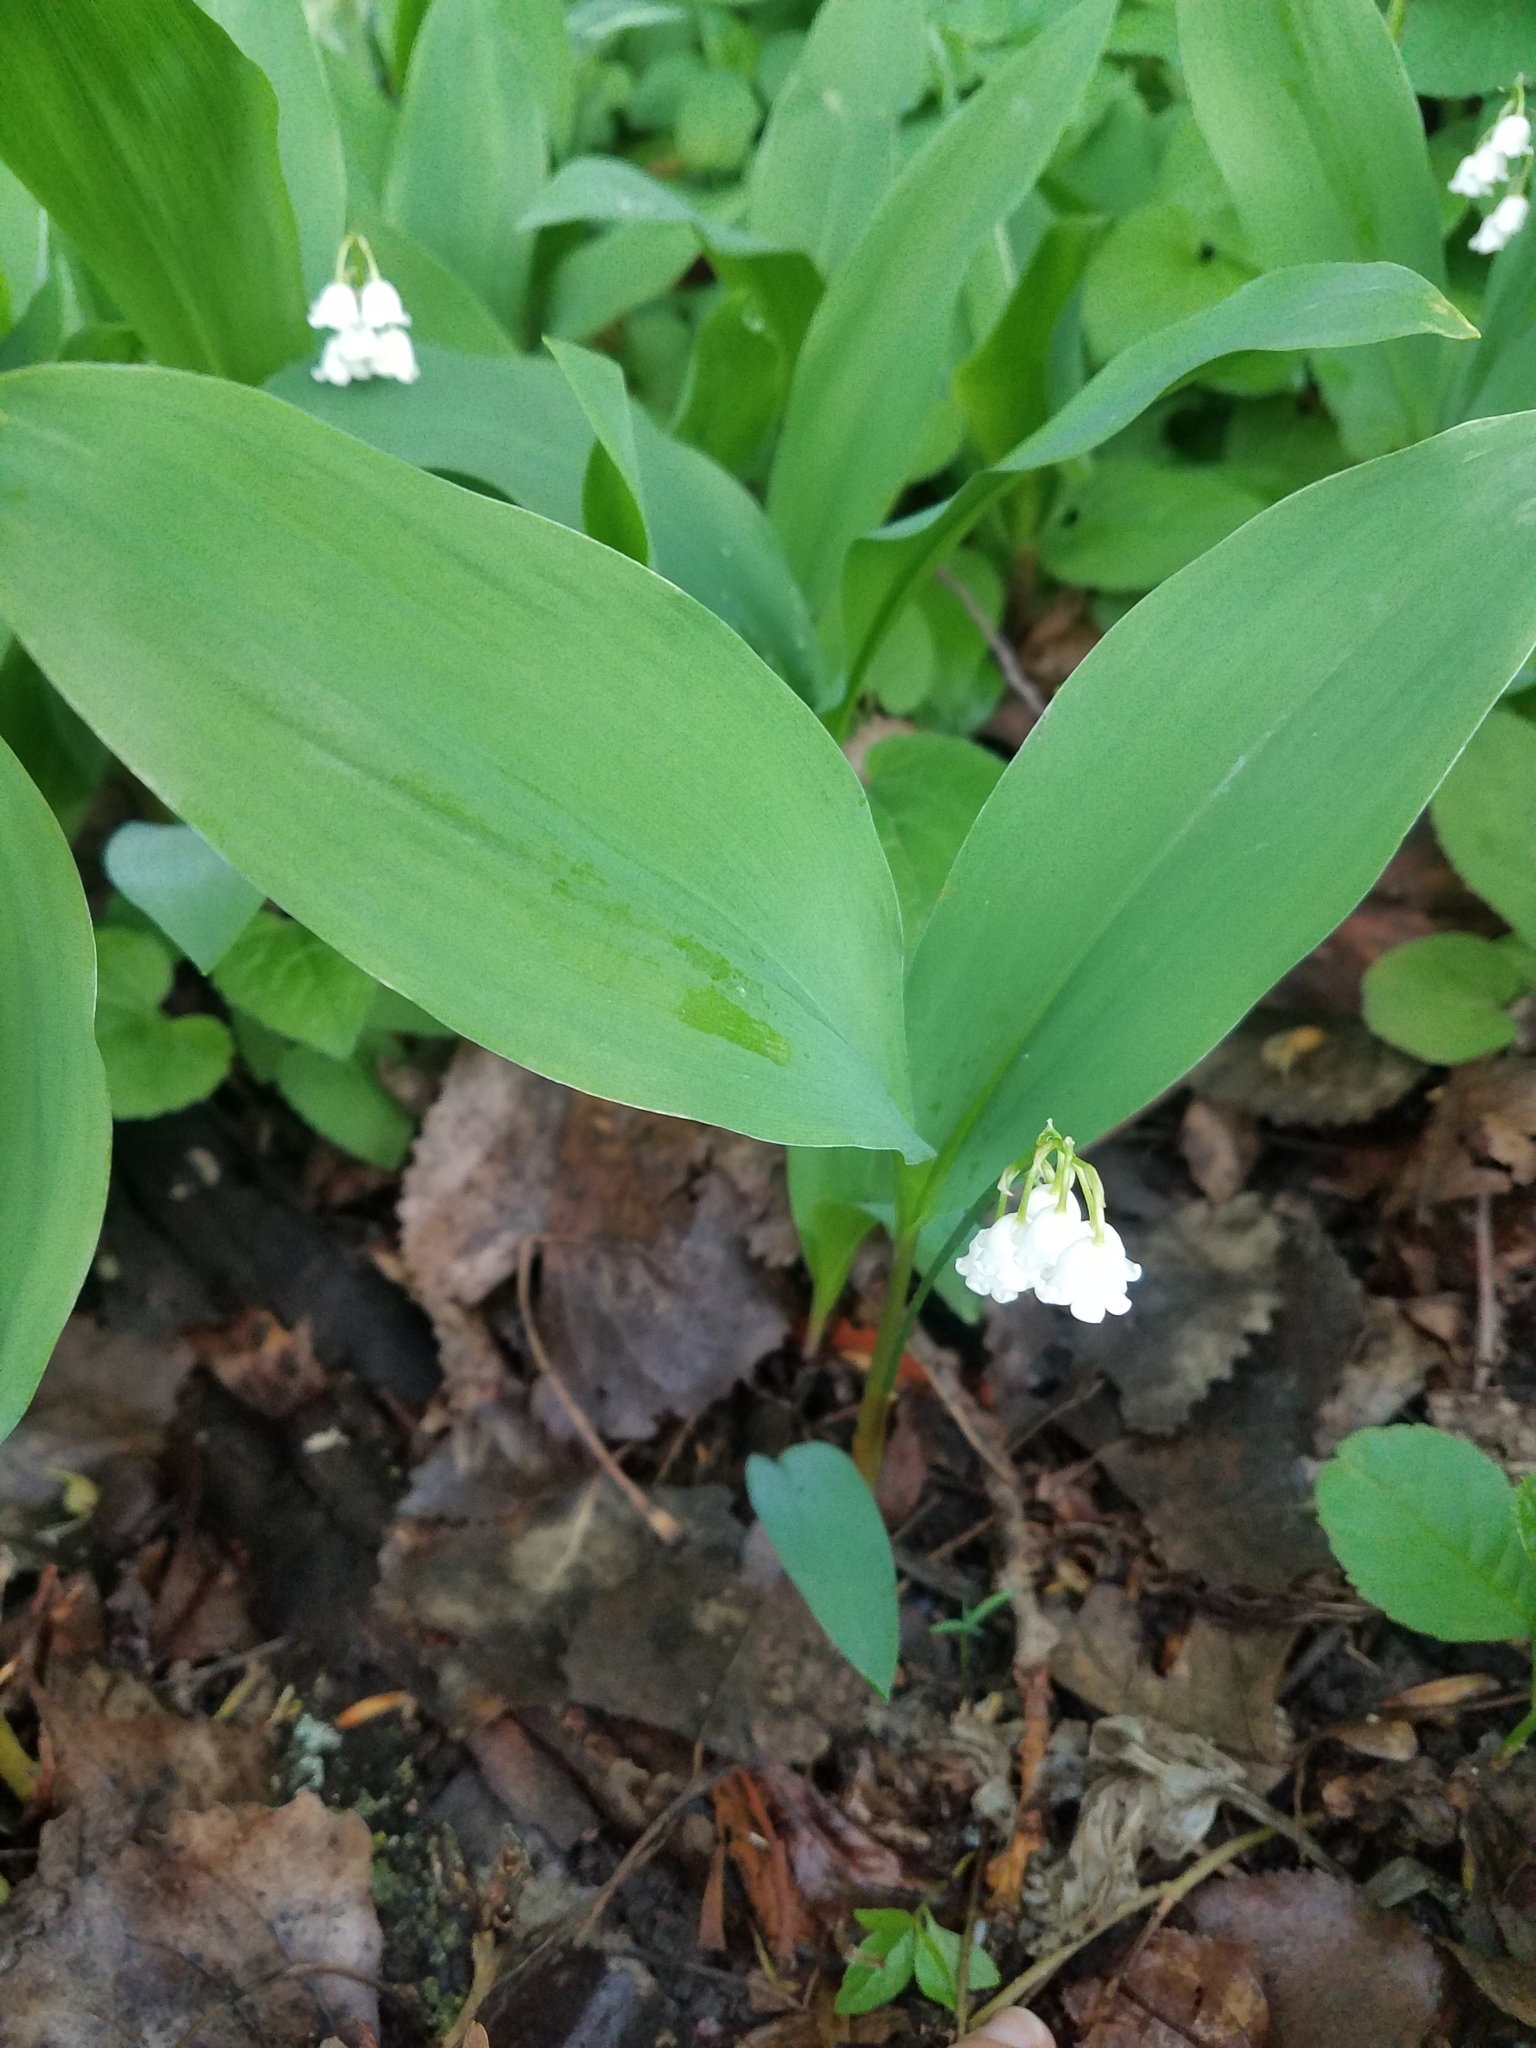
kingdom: Plantae
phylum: Tracheophyta
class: Liliopsida
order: Asparagales
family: Asparagaceae
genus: Convallaria
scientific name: Convallaria majalis
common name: Lily-of-the-valley
